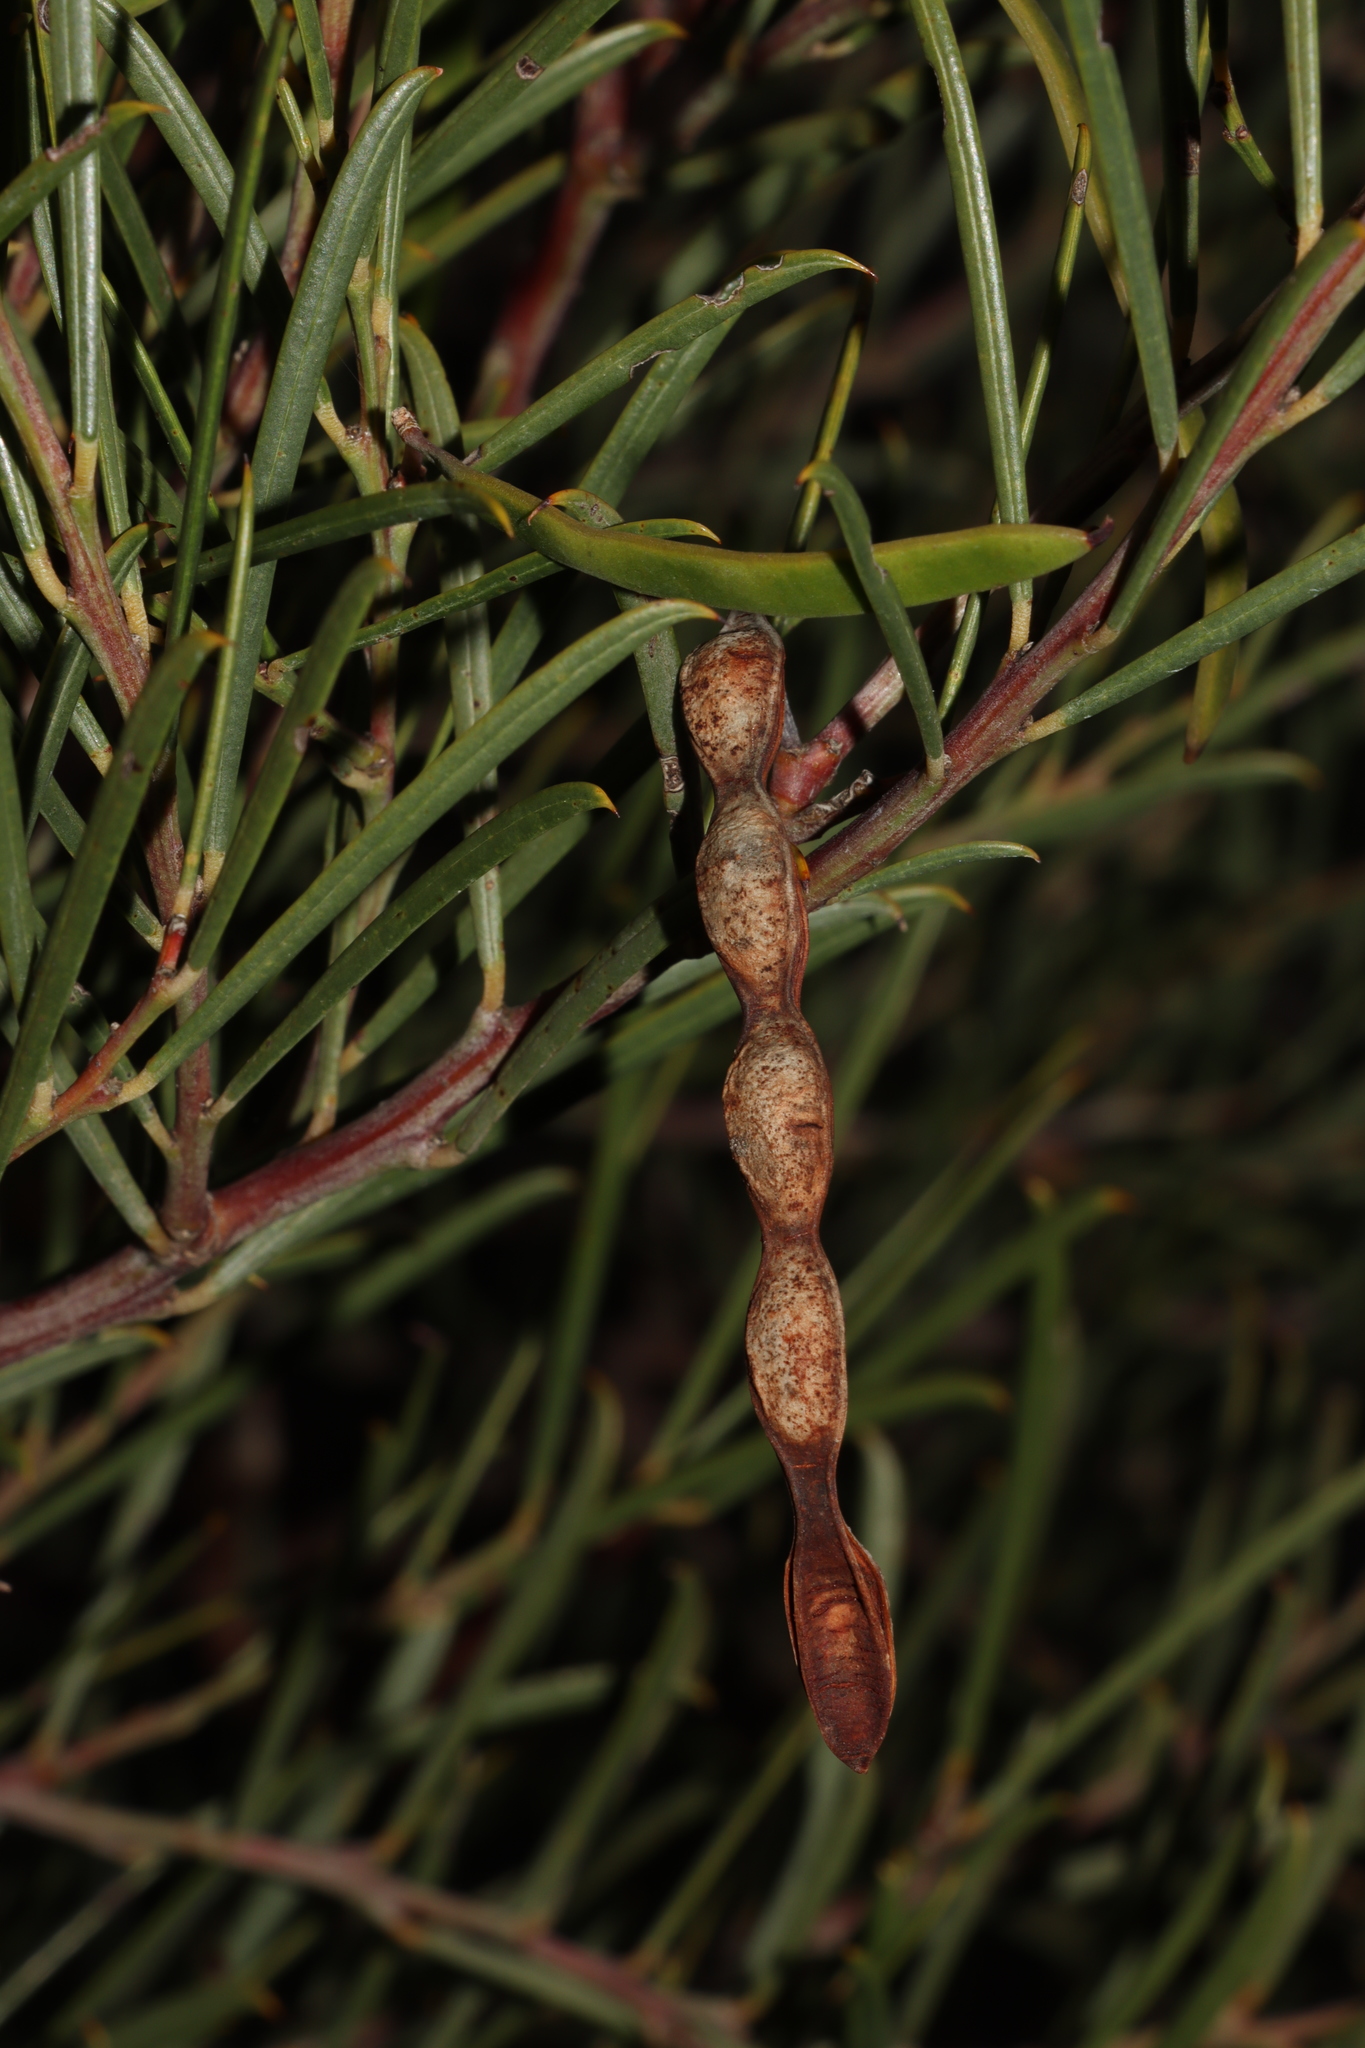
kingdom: Plantae
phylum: Tracheophyta
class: Magnoliopsida
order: Fabales
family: Fabaceae
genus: Acacia
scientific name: Acacia euthycarpa
